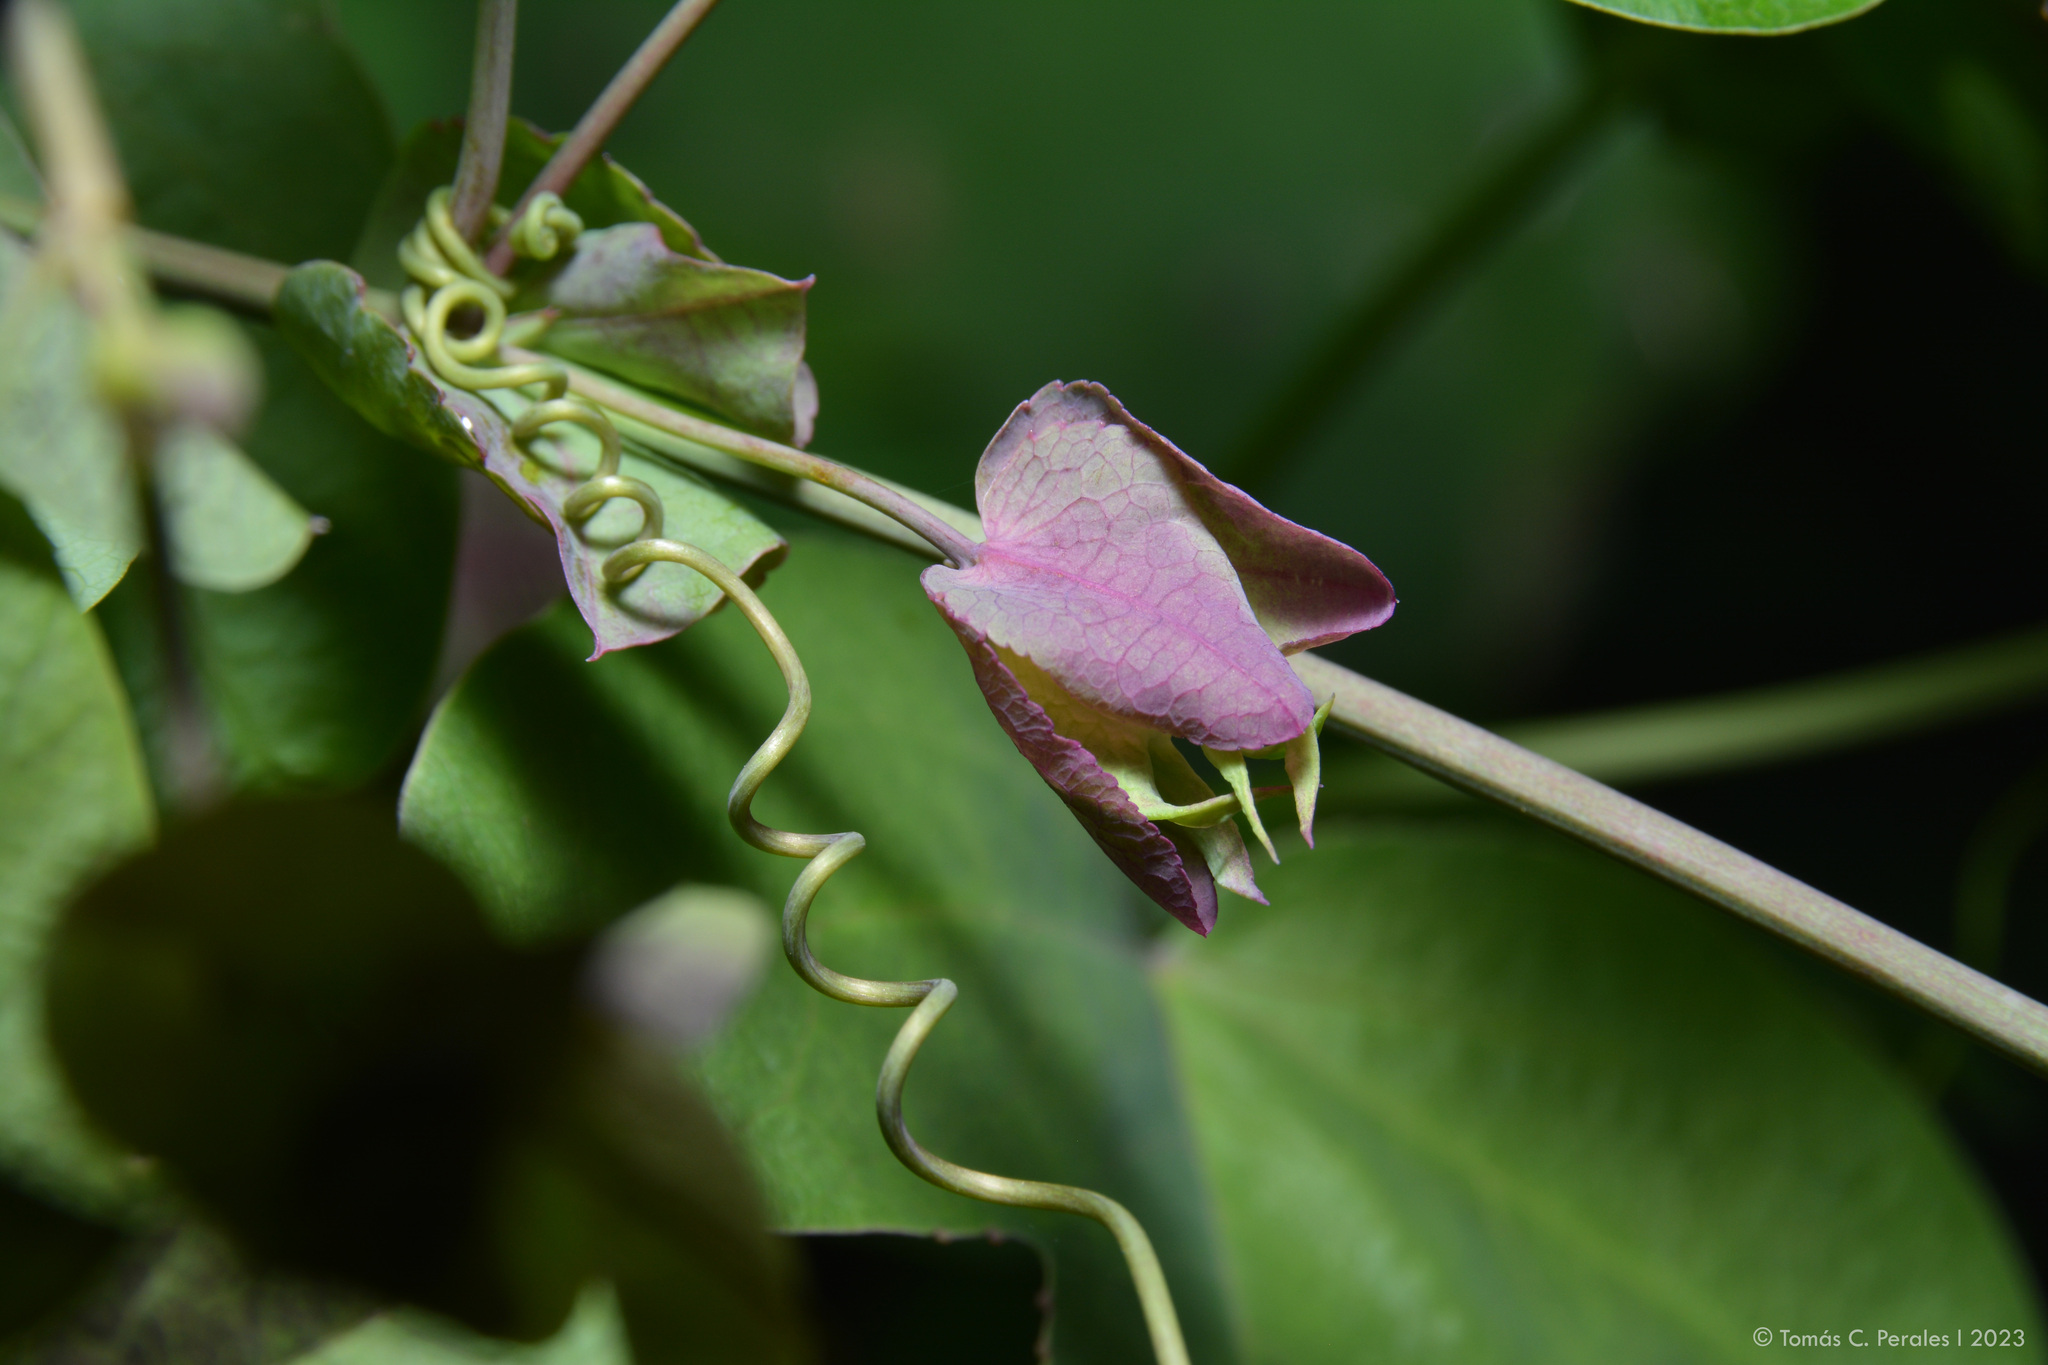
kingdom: Plantae
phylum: Tracheophyta
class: Magnoliopsida
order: Malpighiales
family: Passifloraceae
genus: Passiflora
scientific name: Passiflora tucumanensis
